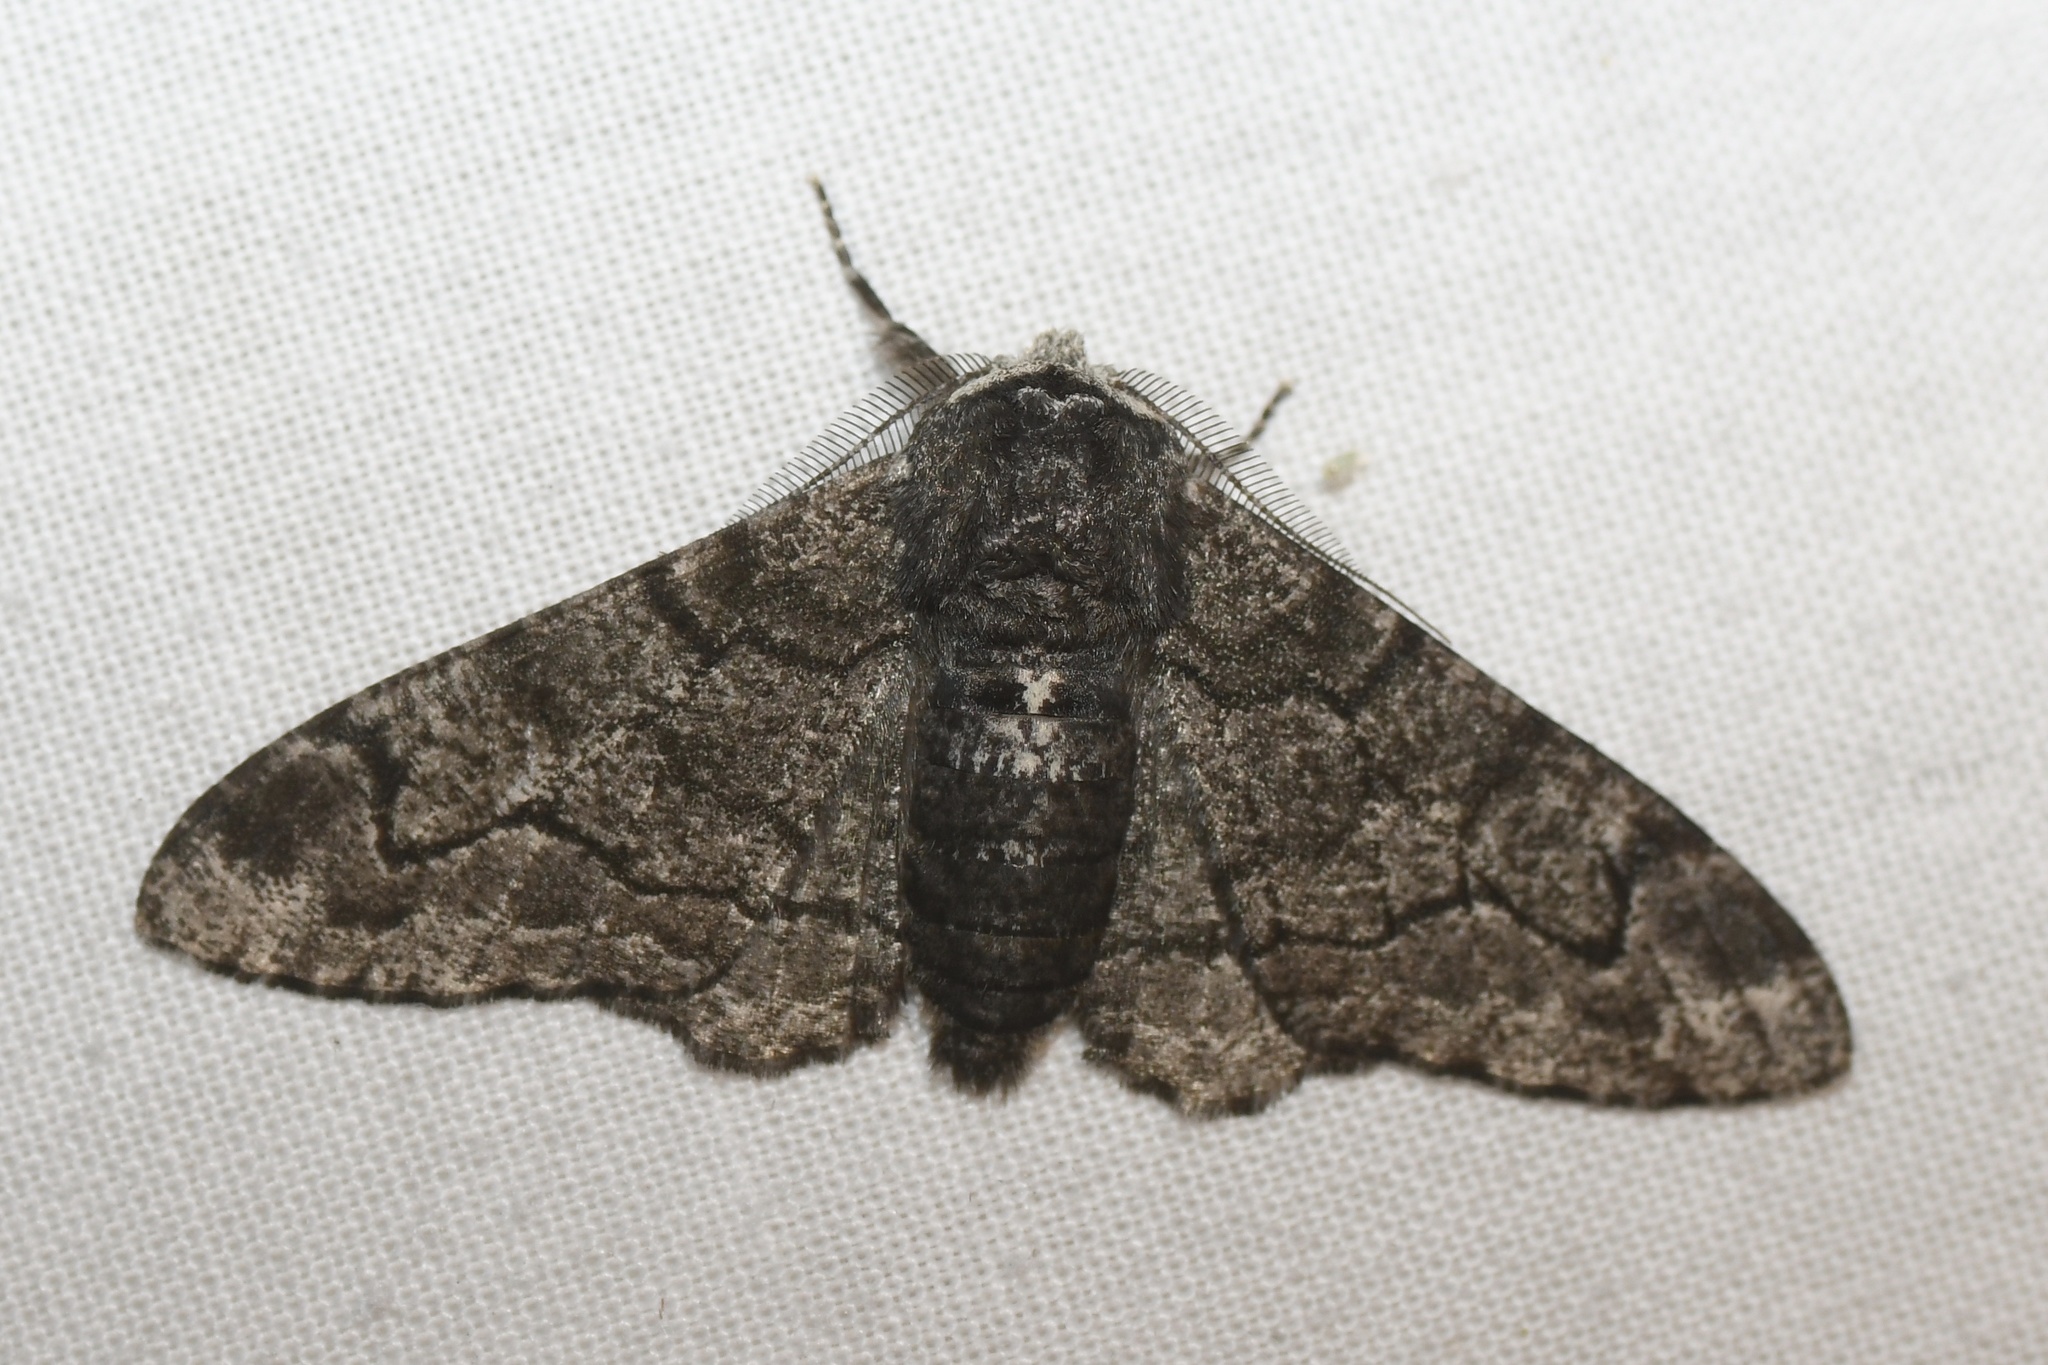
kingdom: Animalia
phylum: Arthropoda
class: Insecta
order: Lepidoptera
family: Geometridae
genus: Biston
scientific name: Biston betularia
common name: Peppered moth
